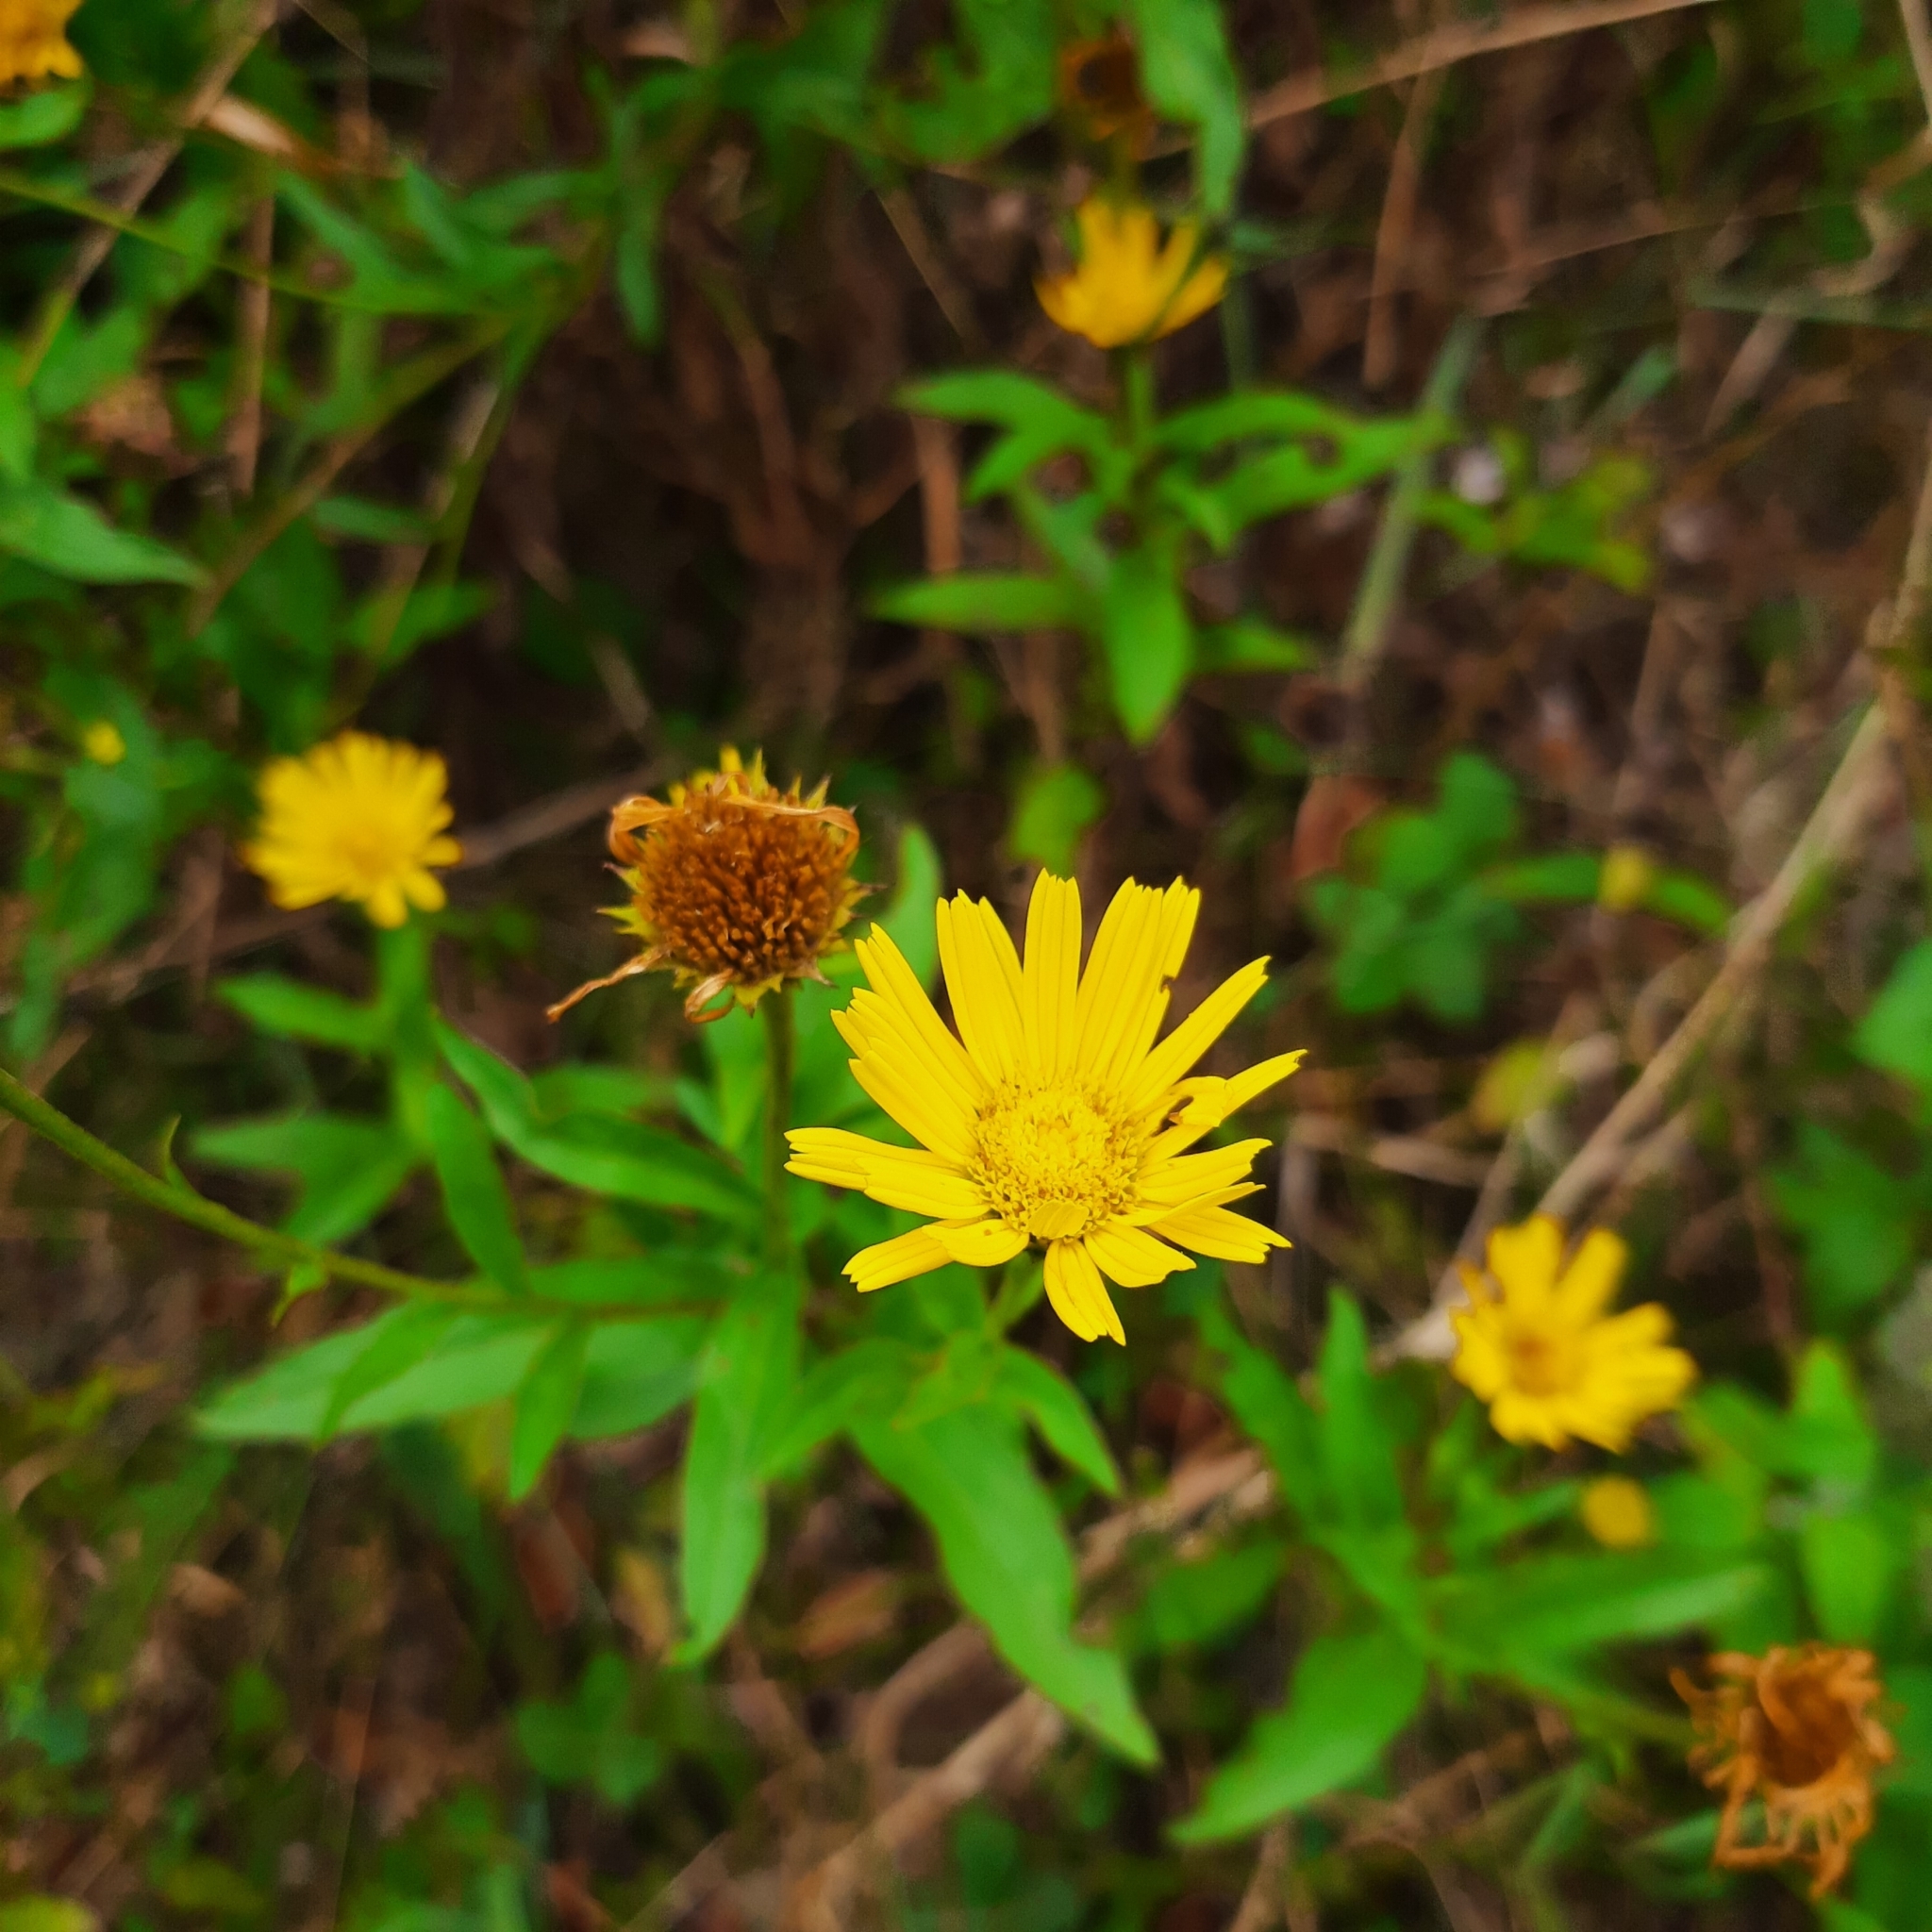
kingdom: Plantae
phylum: Tracheophyta
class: Magnoliopsida
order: Asterales
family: Asteraceae
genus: Buphthalmum
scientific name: Buphthalmum salicifolium
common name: Willow-leaved yellow-oxeye
